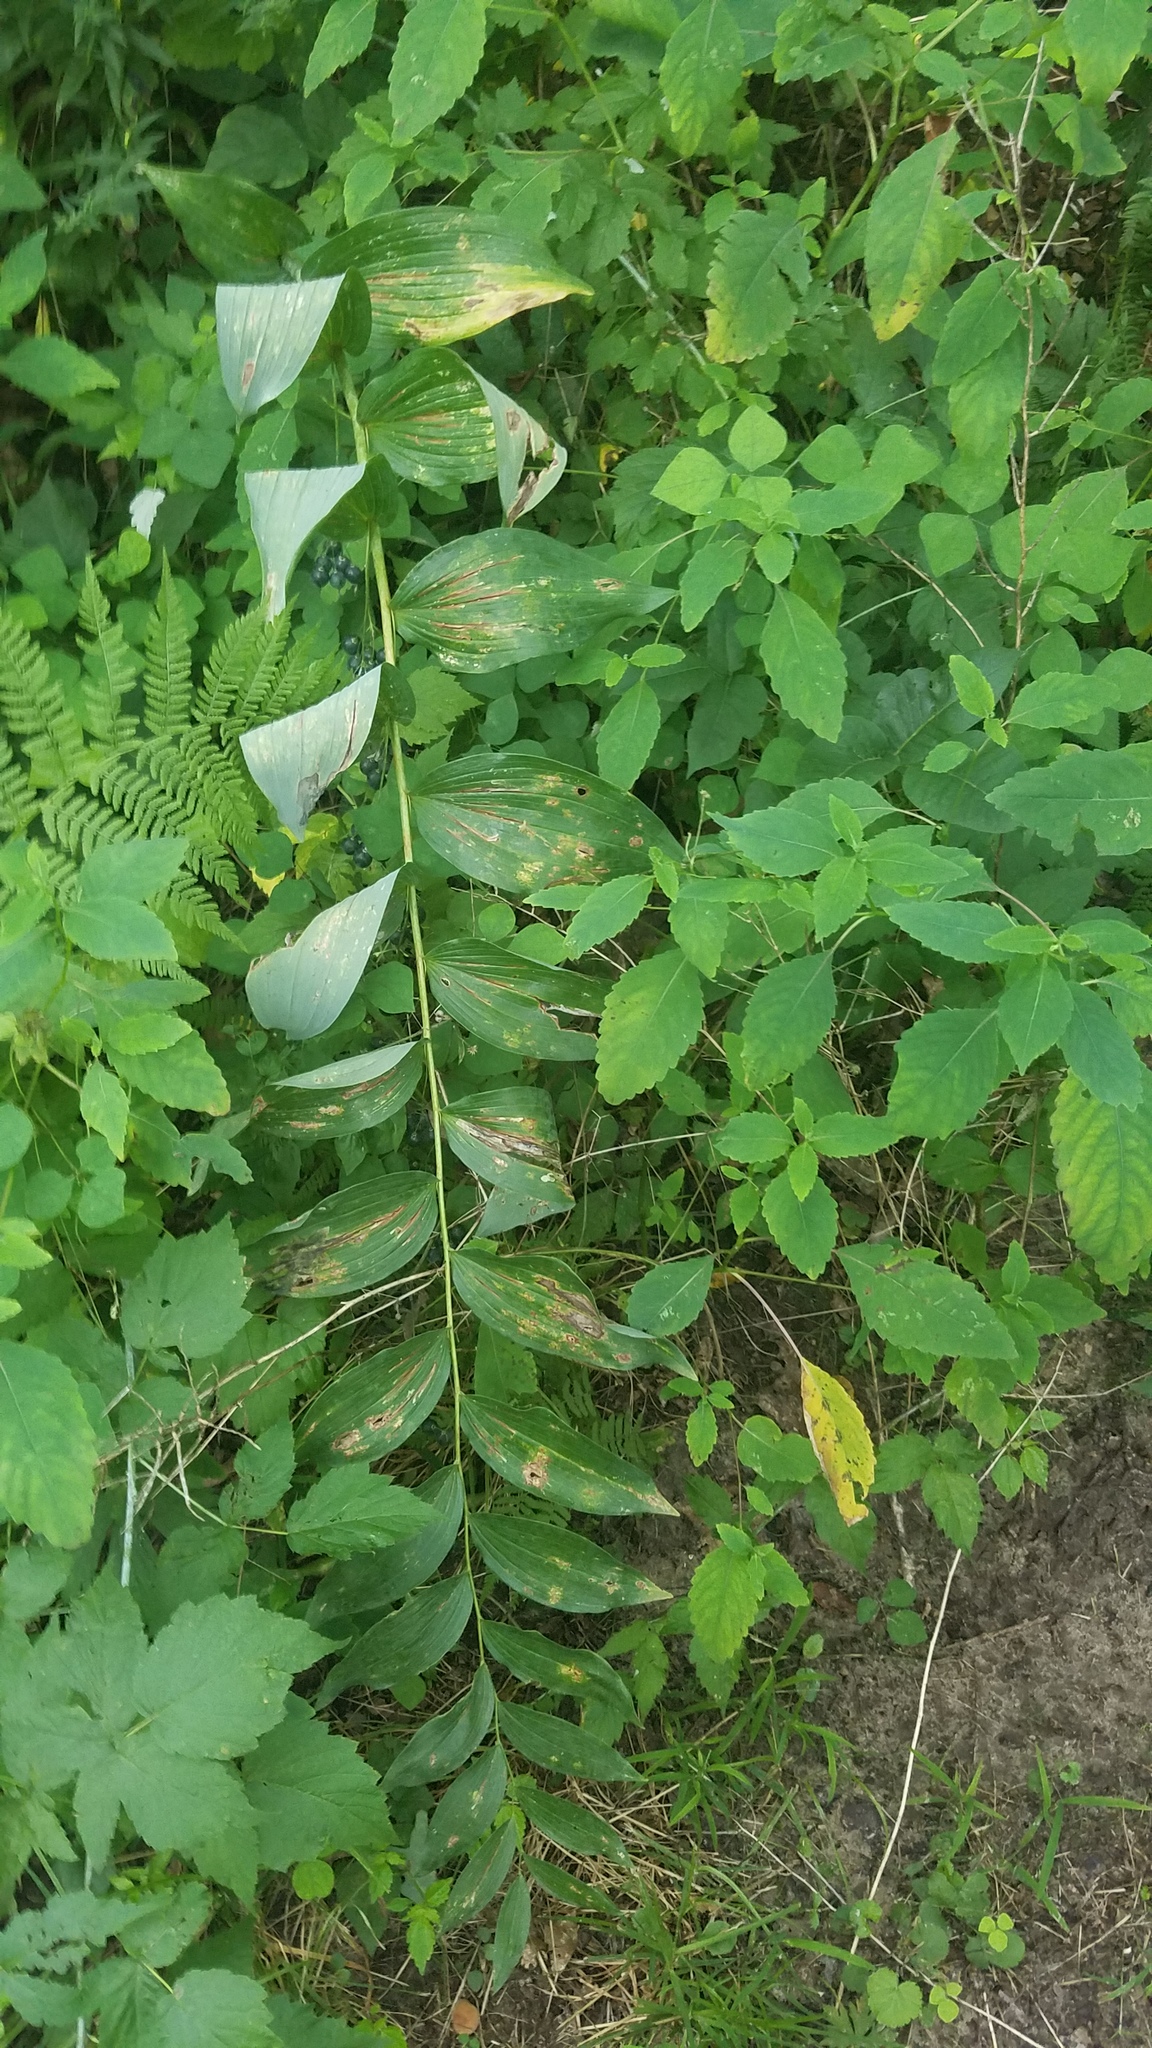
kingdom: Plantae
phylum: Tracheophyta
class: Liliopsida
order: Asparagales
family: Asparagaceae
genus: Polygonatum
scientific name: Polygonatum biflorum
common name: American solomon's-seal
